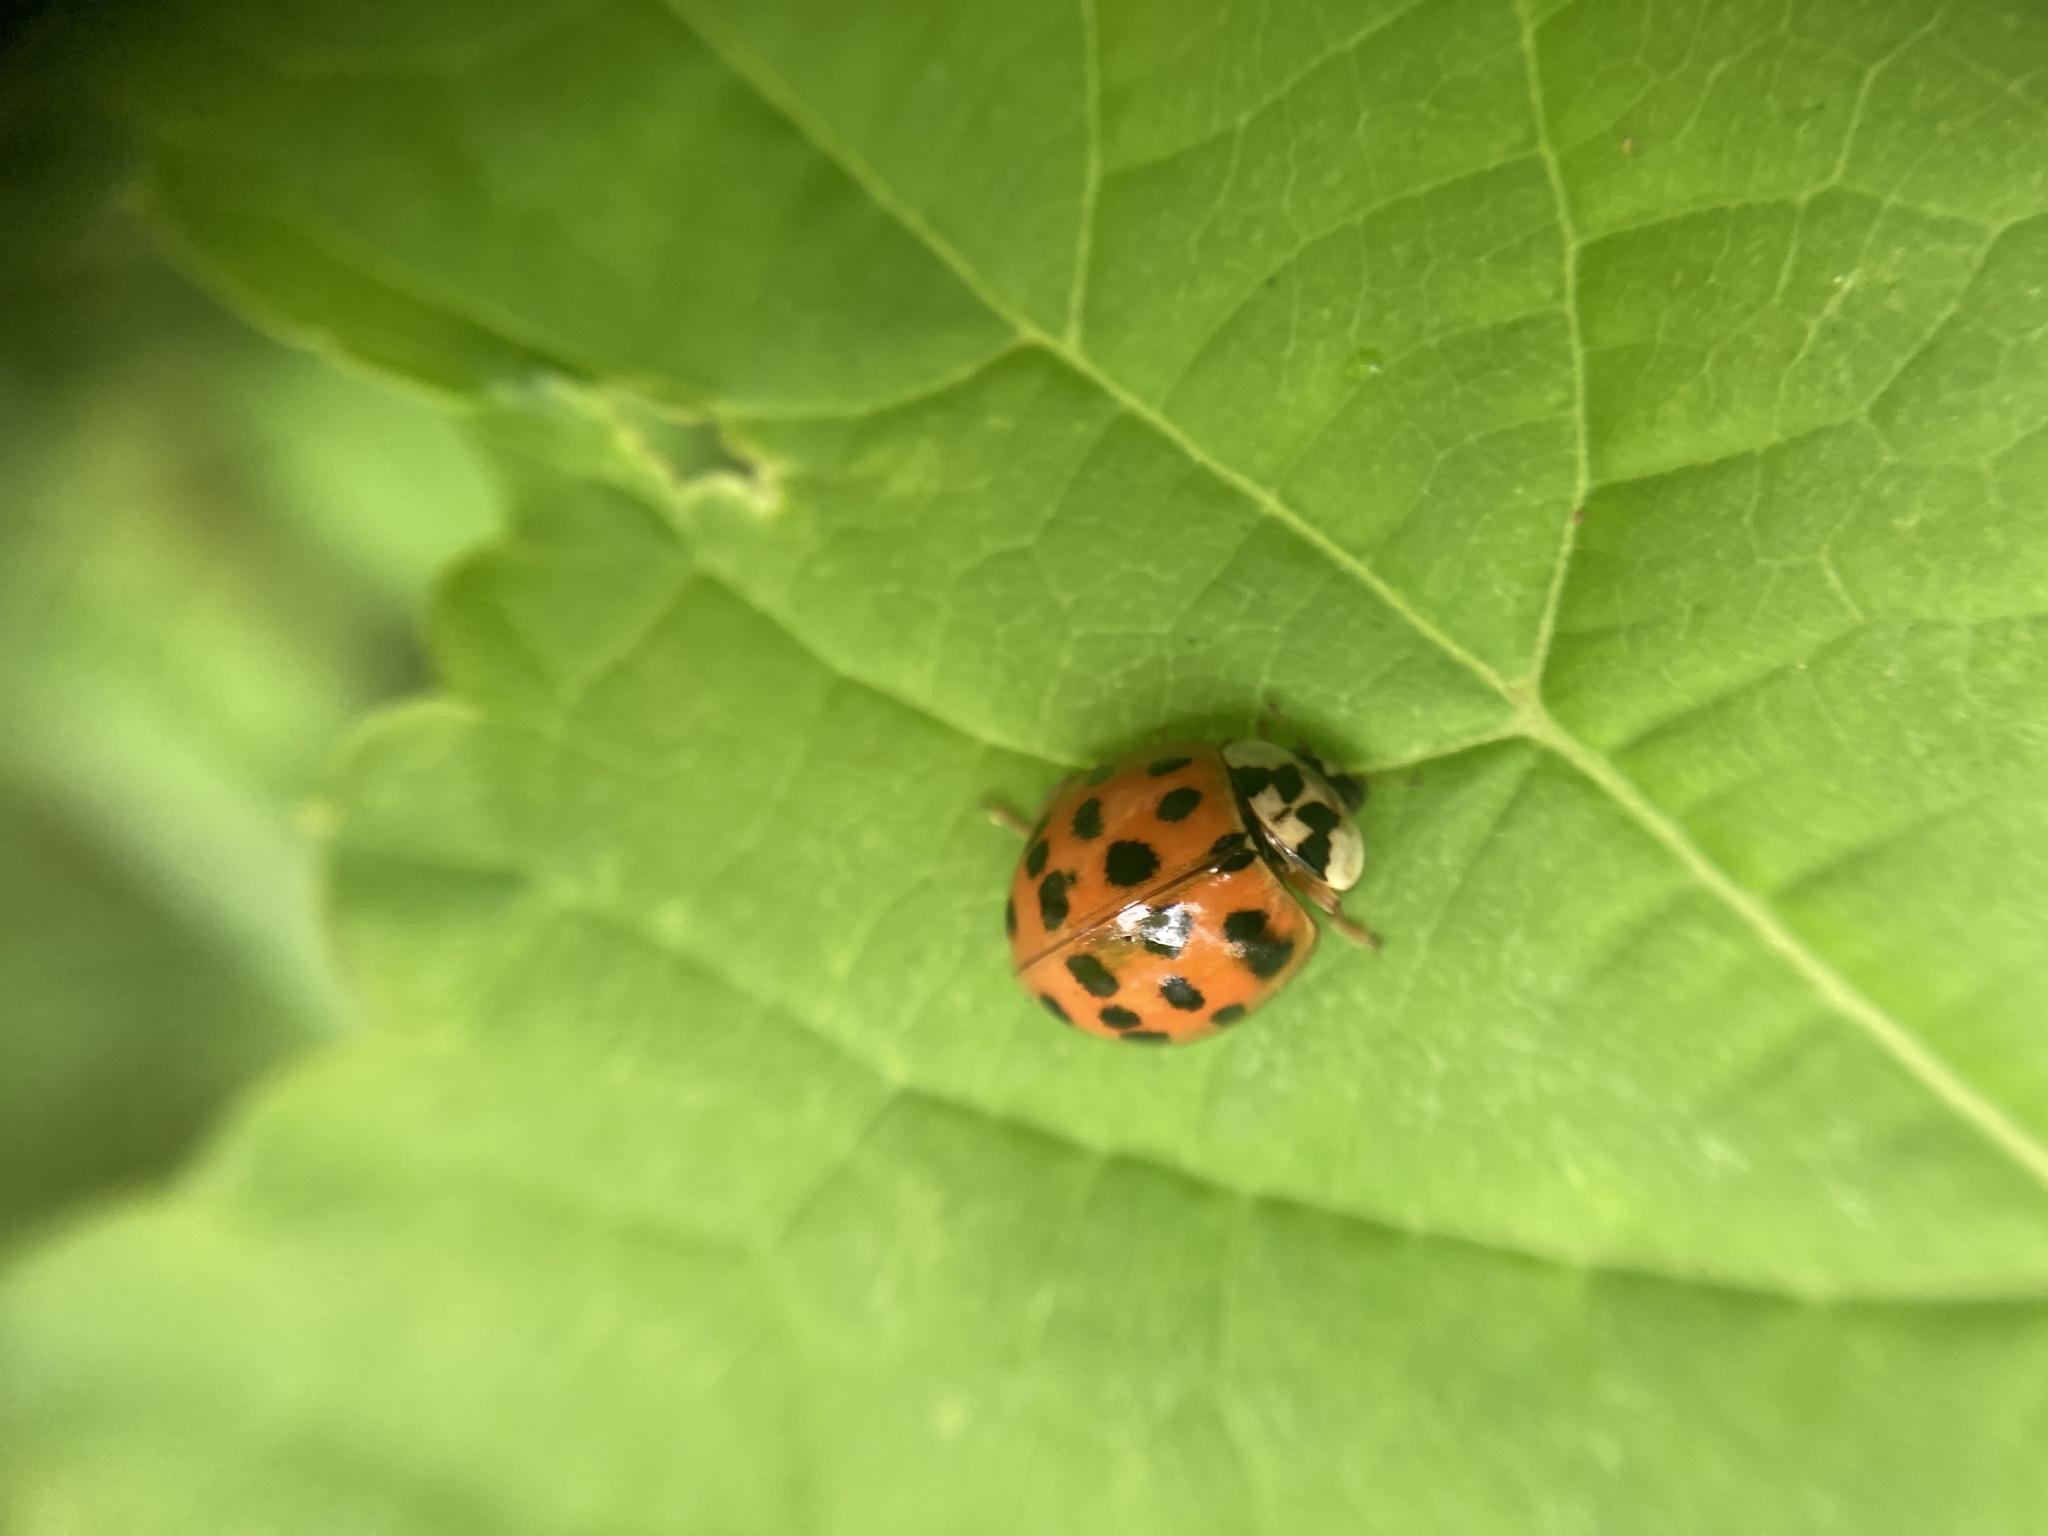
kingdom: Animalia
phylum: Arthropoda
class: Insecta
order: Coleoptera
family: Coccinellidae
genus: Harmonia
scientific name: Harmonia axyridis
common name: Harlequin ladybird
